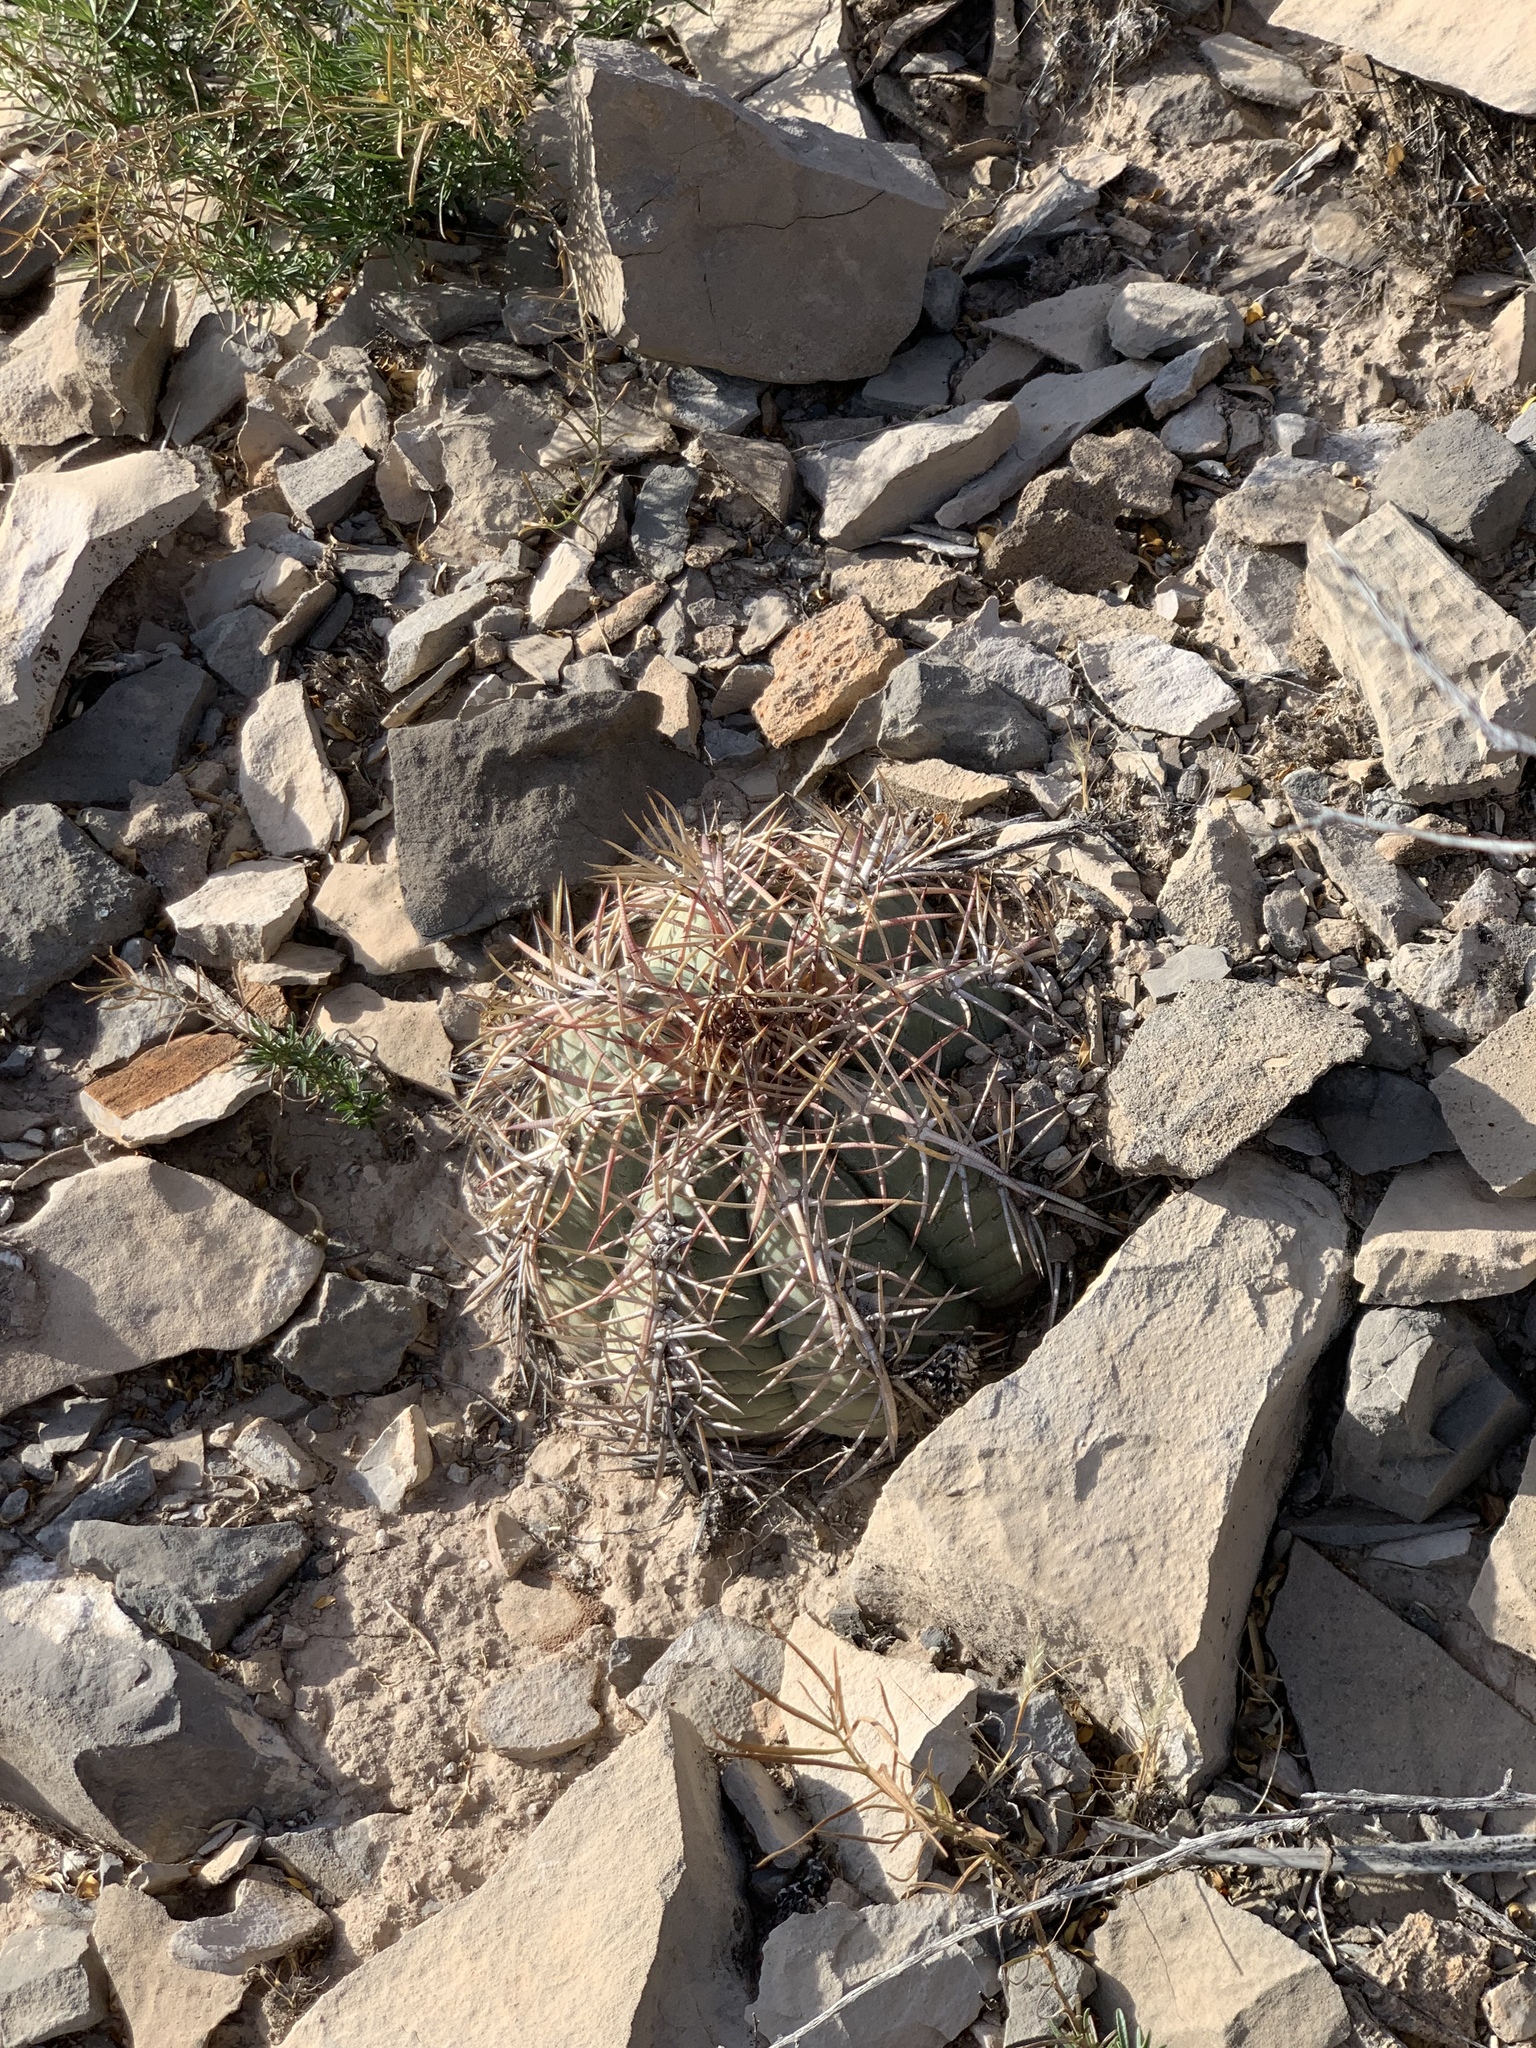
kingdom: Plantae
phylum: Tracheophyta
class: Magnoliopsida
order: Caryophyllales
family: Cactaceae
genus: Echinocactus
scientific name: Echinocactus horizonthalonius
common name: Devilshead
